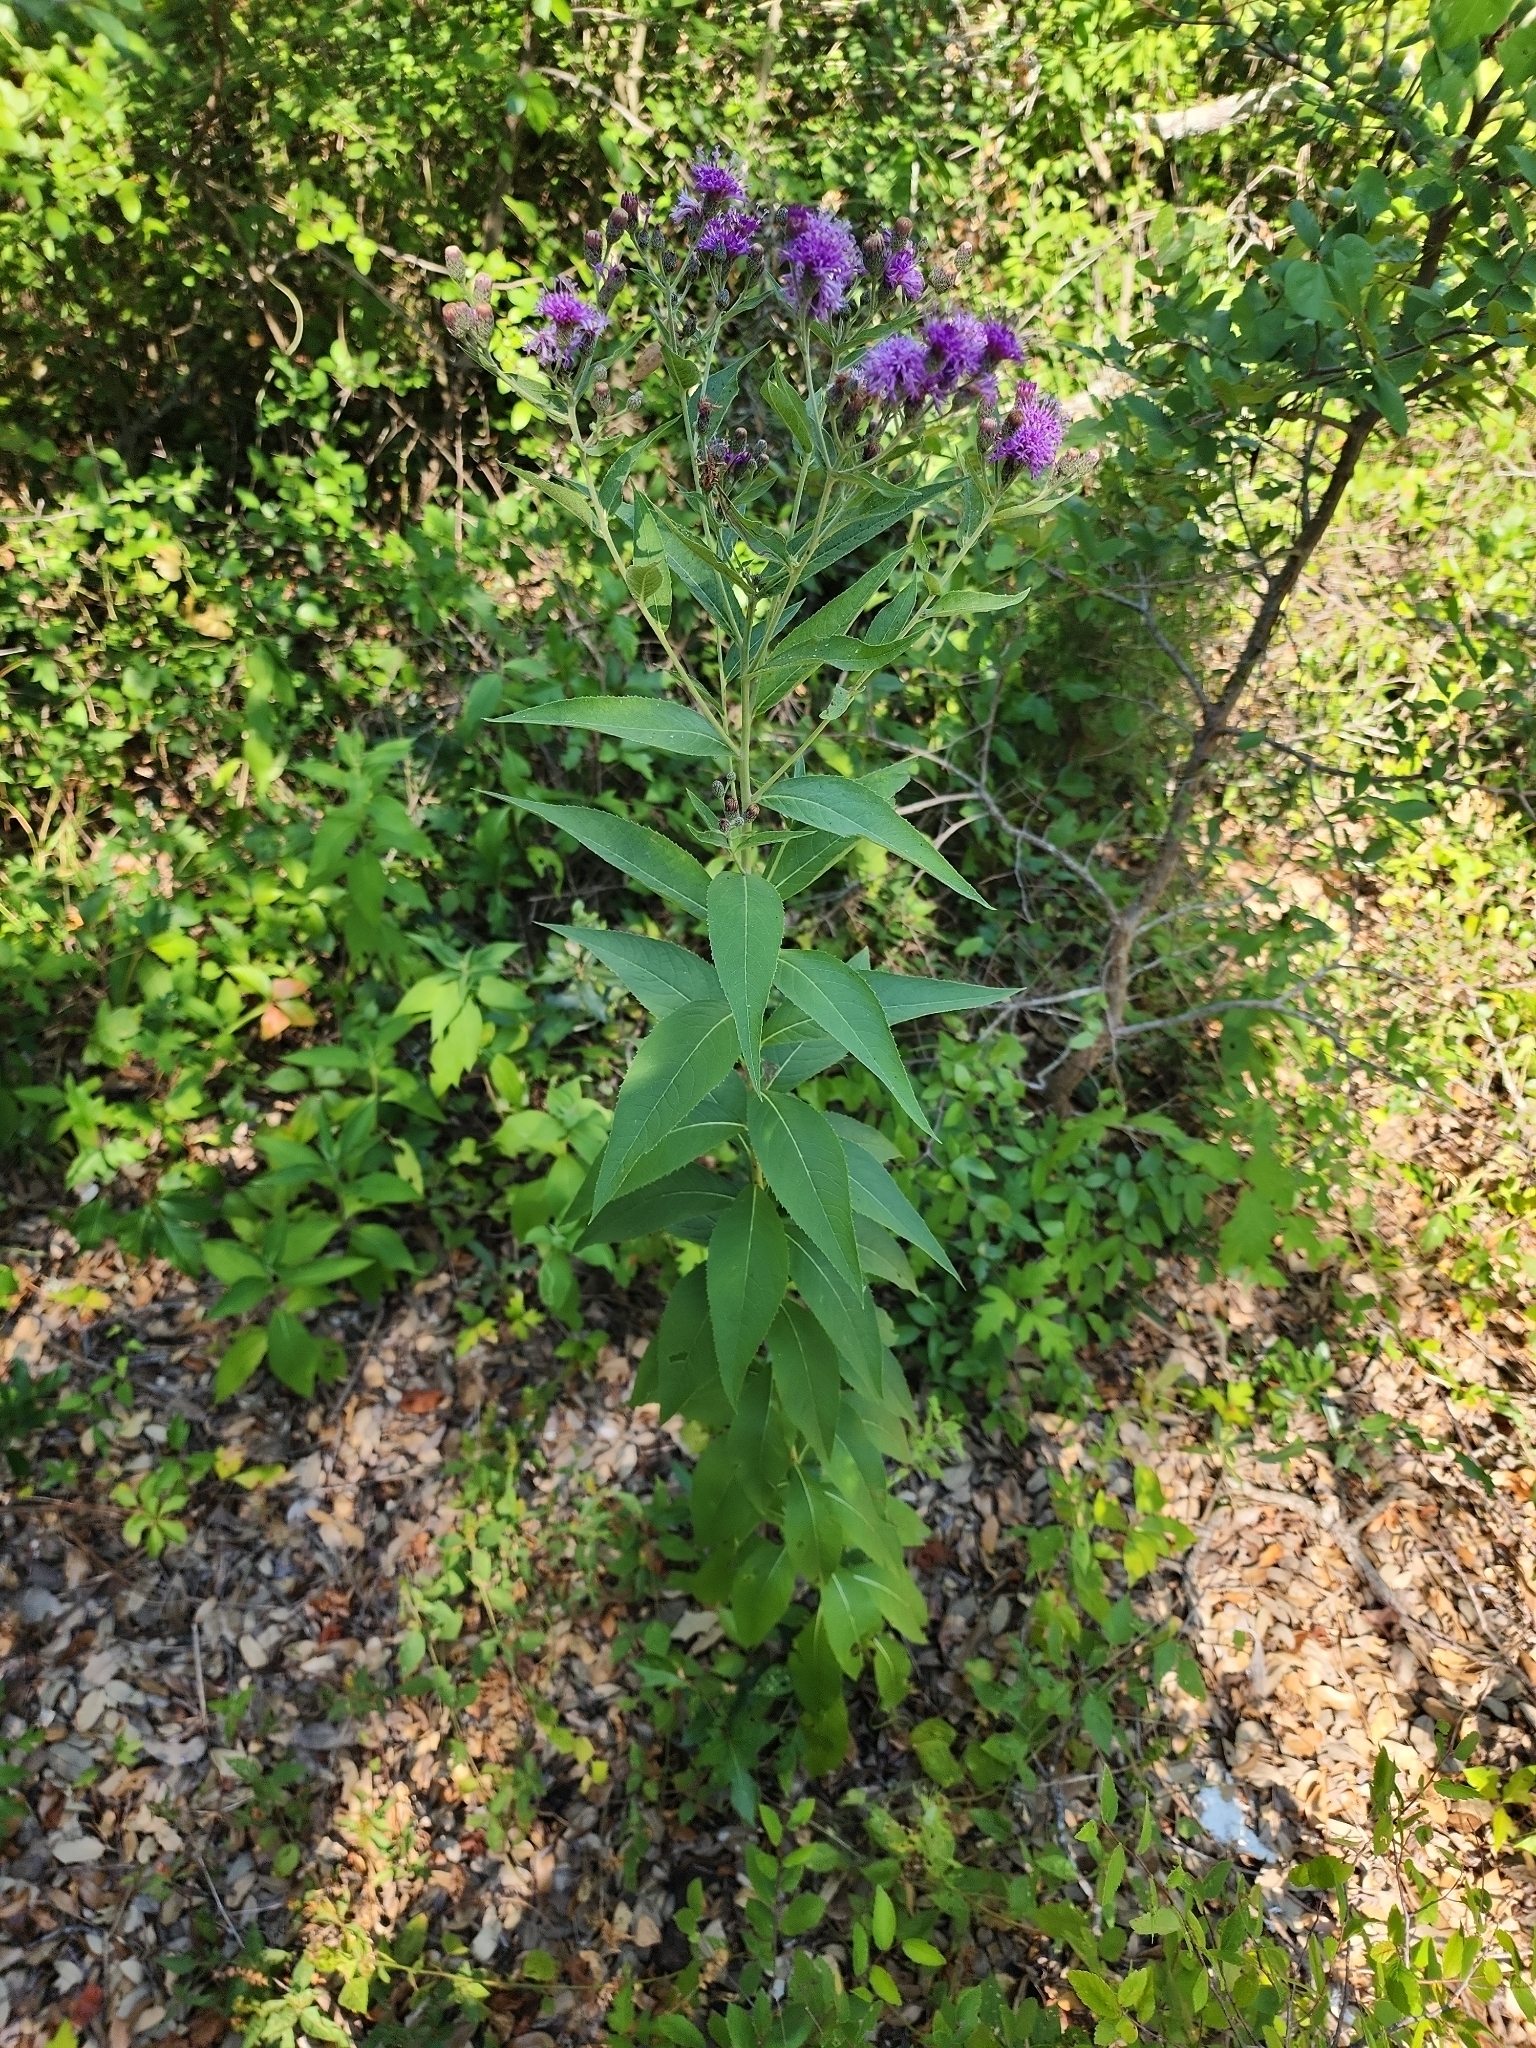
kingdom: Plantae
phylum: Tracheophyta
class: Magnoliopsida
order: Asterales
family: Asteraceae
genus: Vernonia
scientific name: Vernonia baldwinii
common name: Western ironweed
